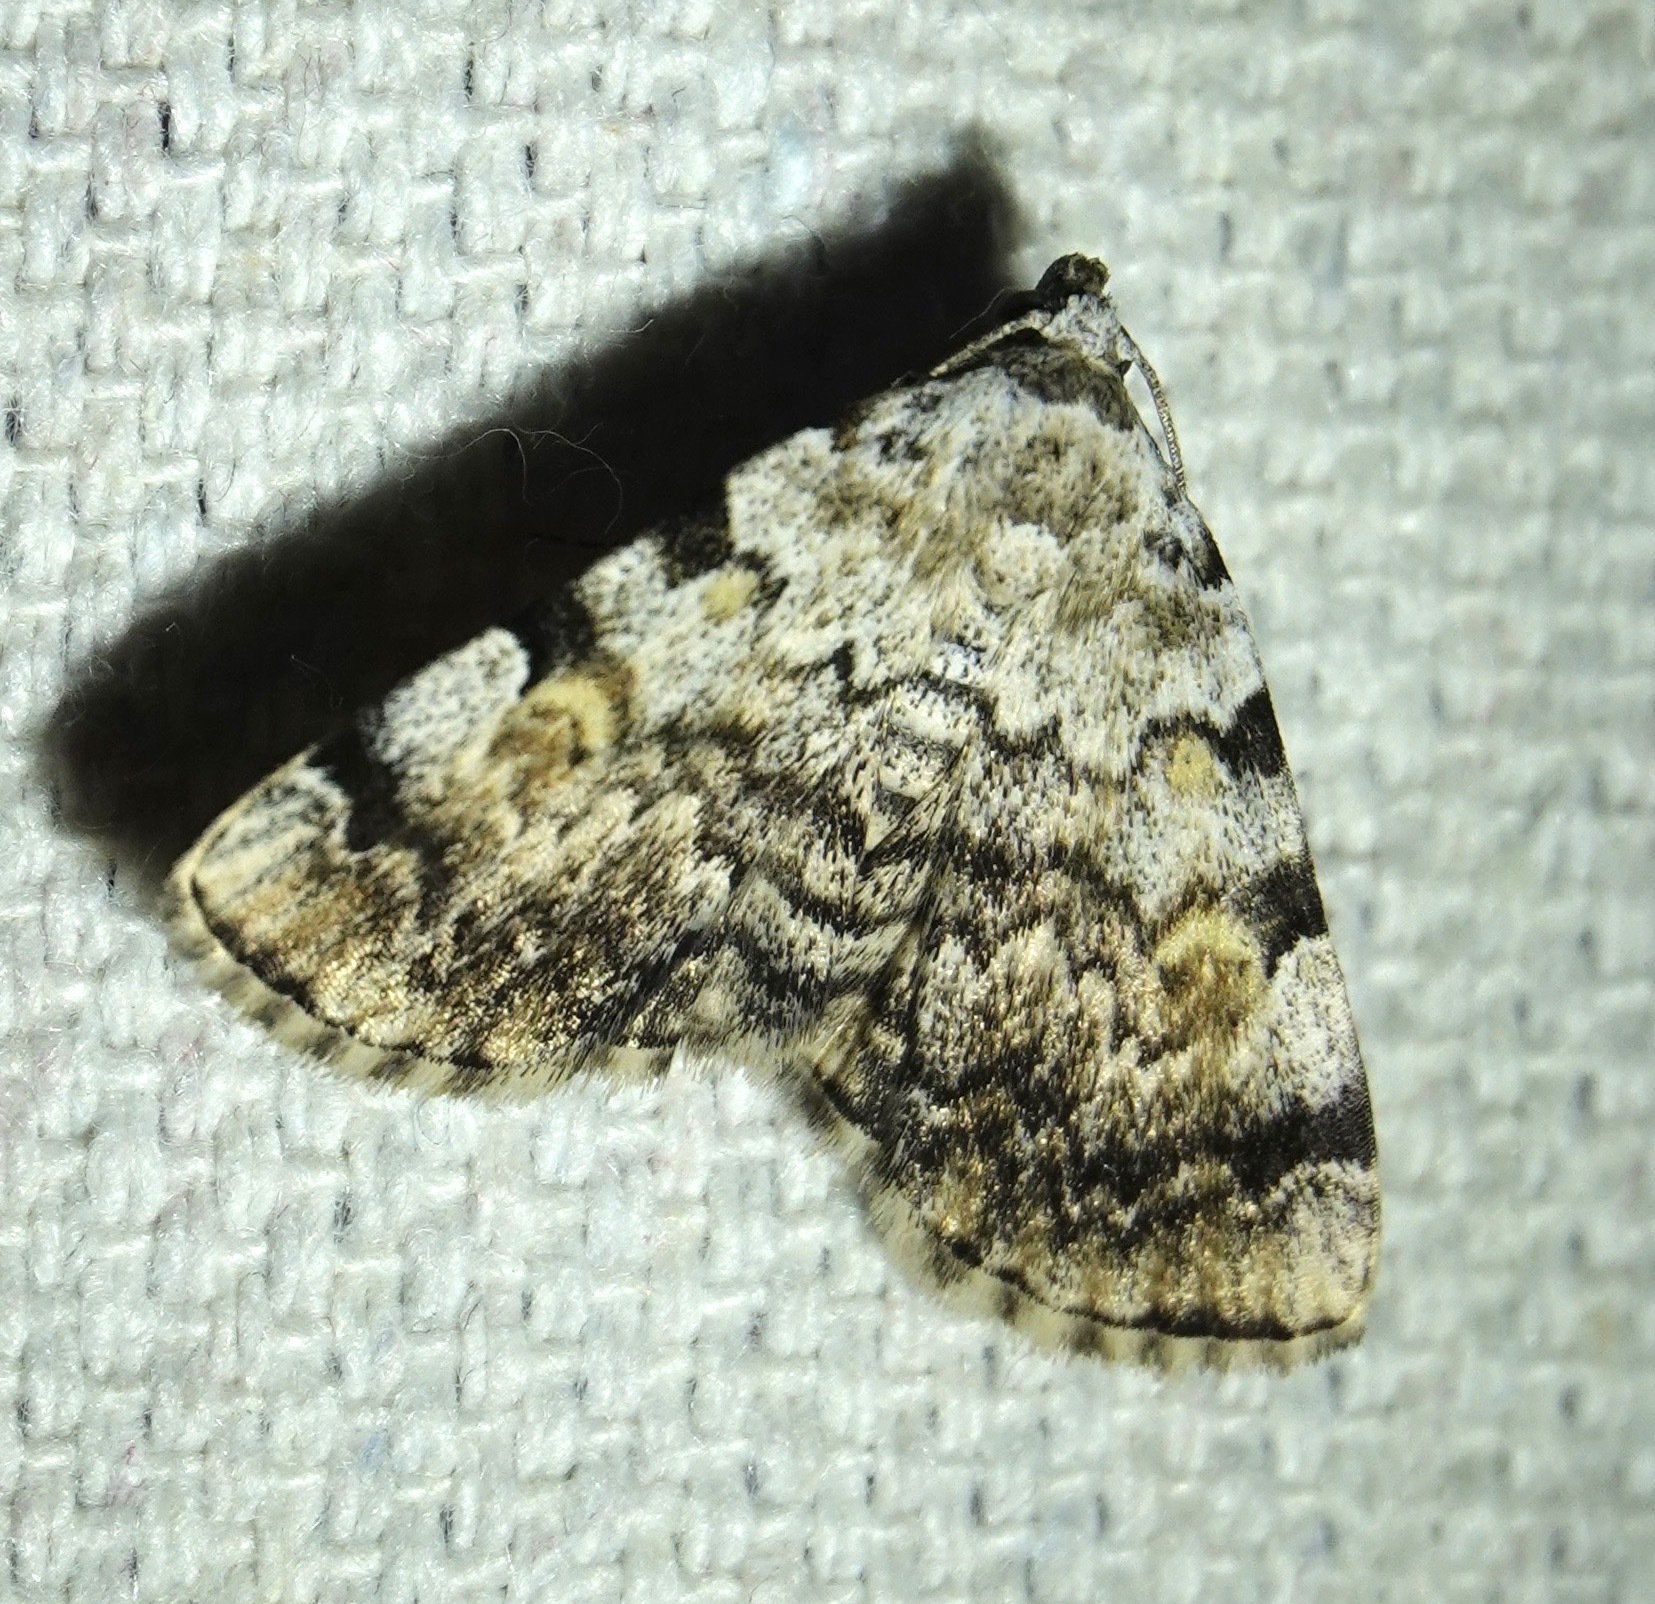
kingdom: Animalia
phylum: Arthropoda
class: Insecta
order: Lepidoptera
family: Erebidae
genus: Idia
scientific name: Idia americalis
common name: American idia moth
